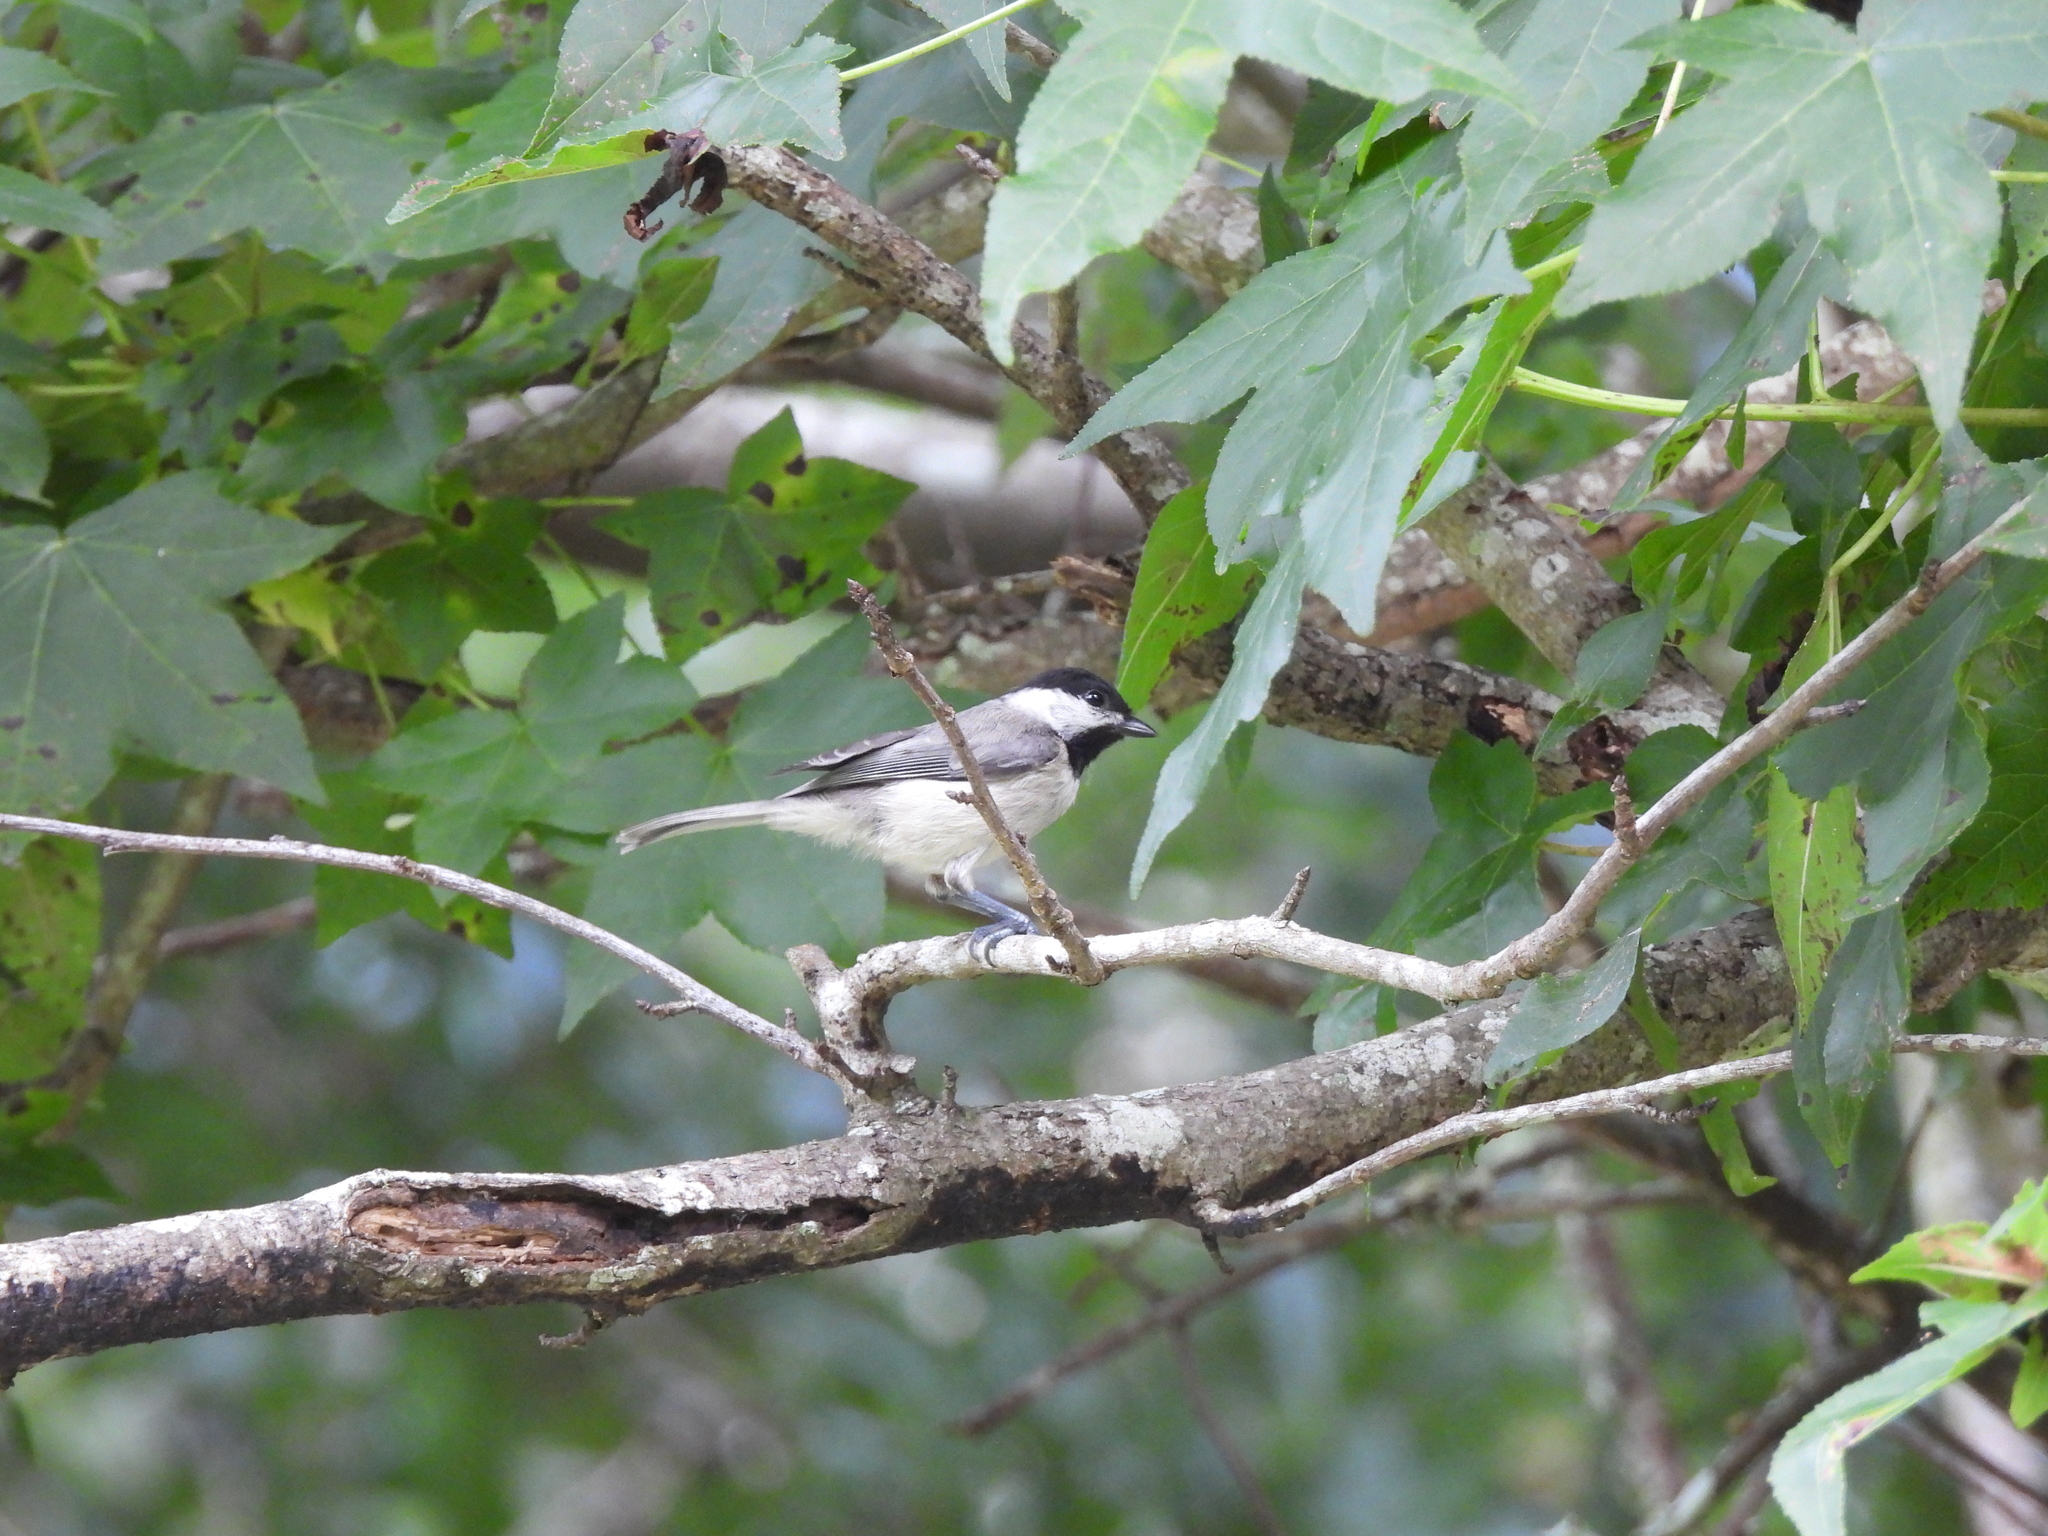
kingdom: Animalia
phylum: Chordata
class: Aves
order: Passeriformes
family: Paridae
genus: Poecile
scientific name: Poecile carolinensis
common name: Carolina chickadee
